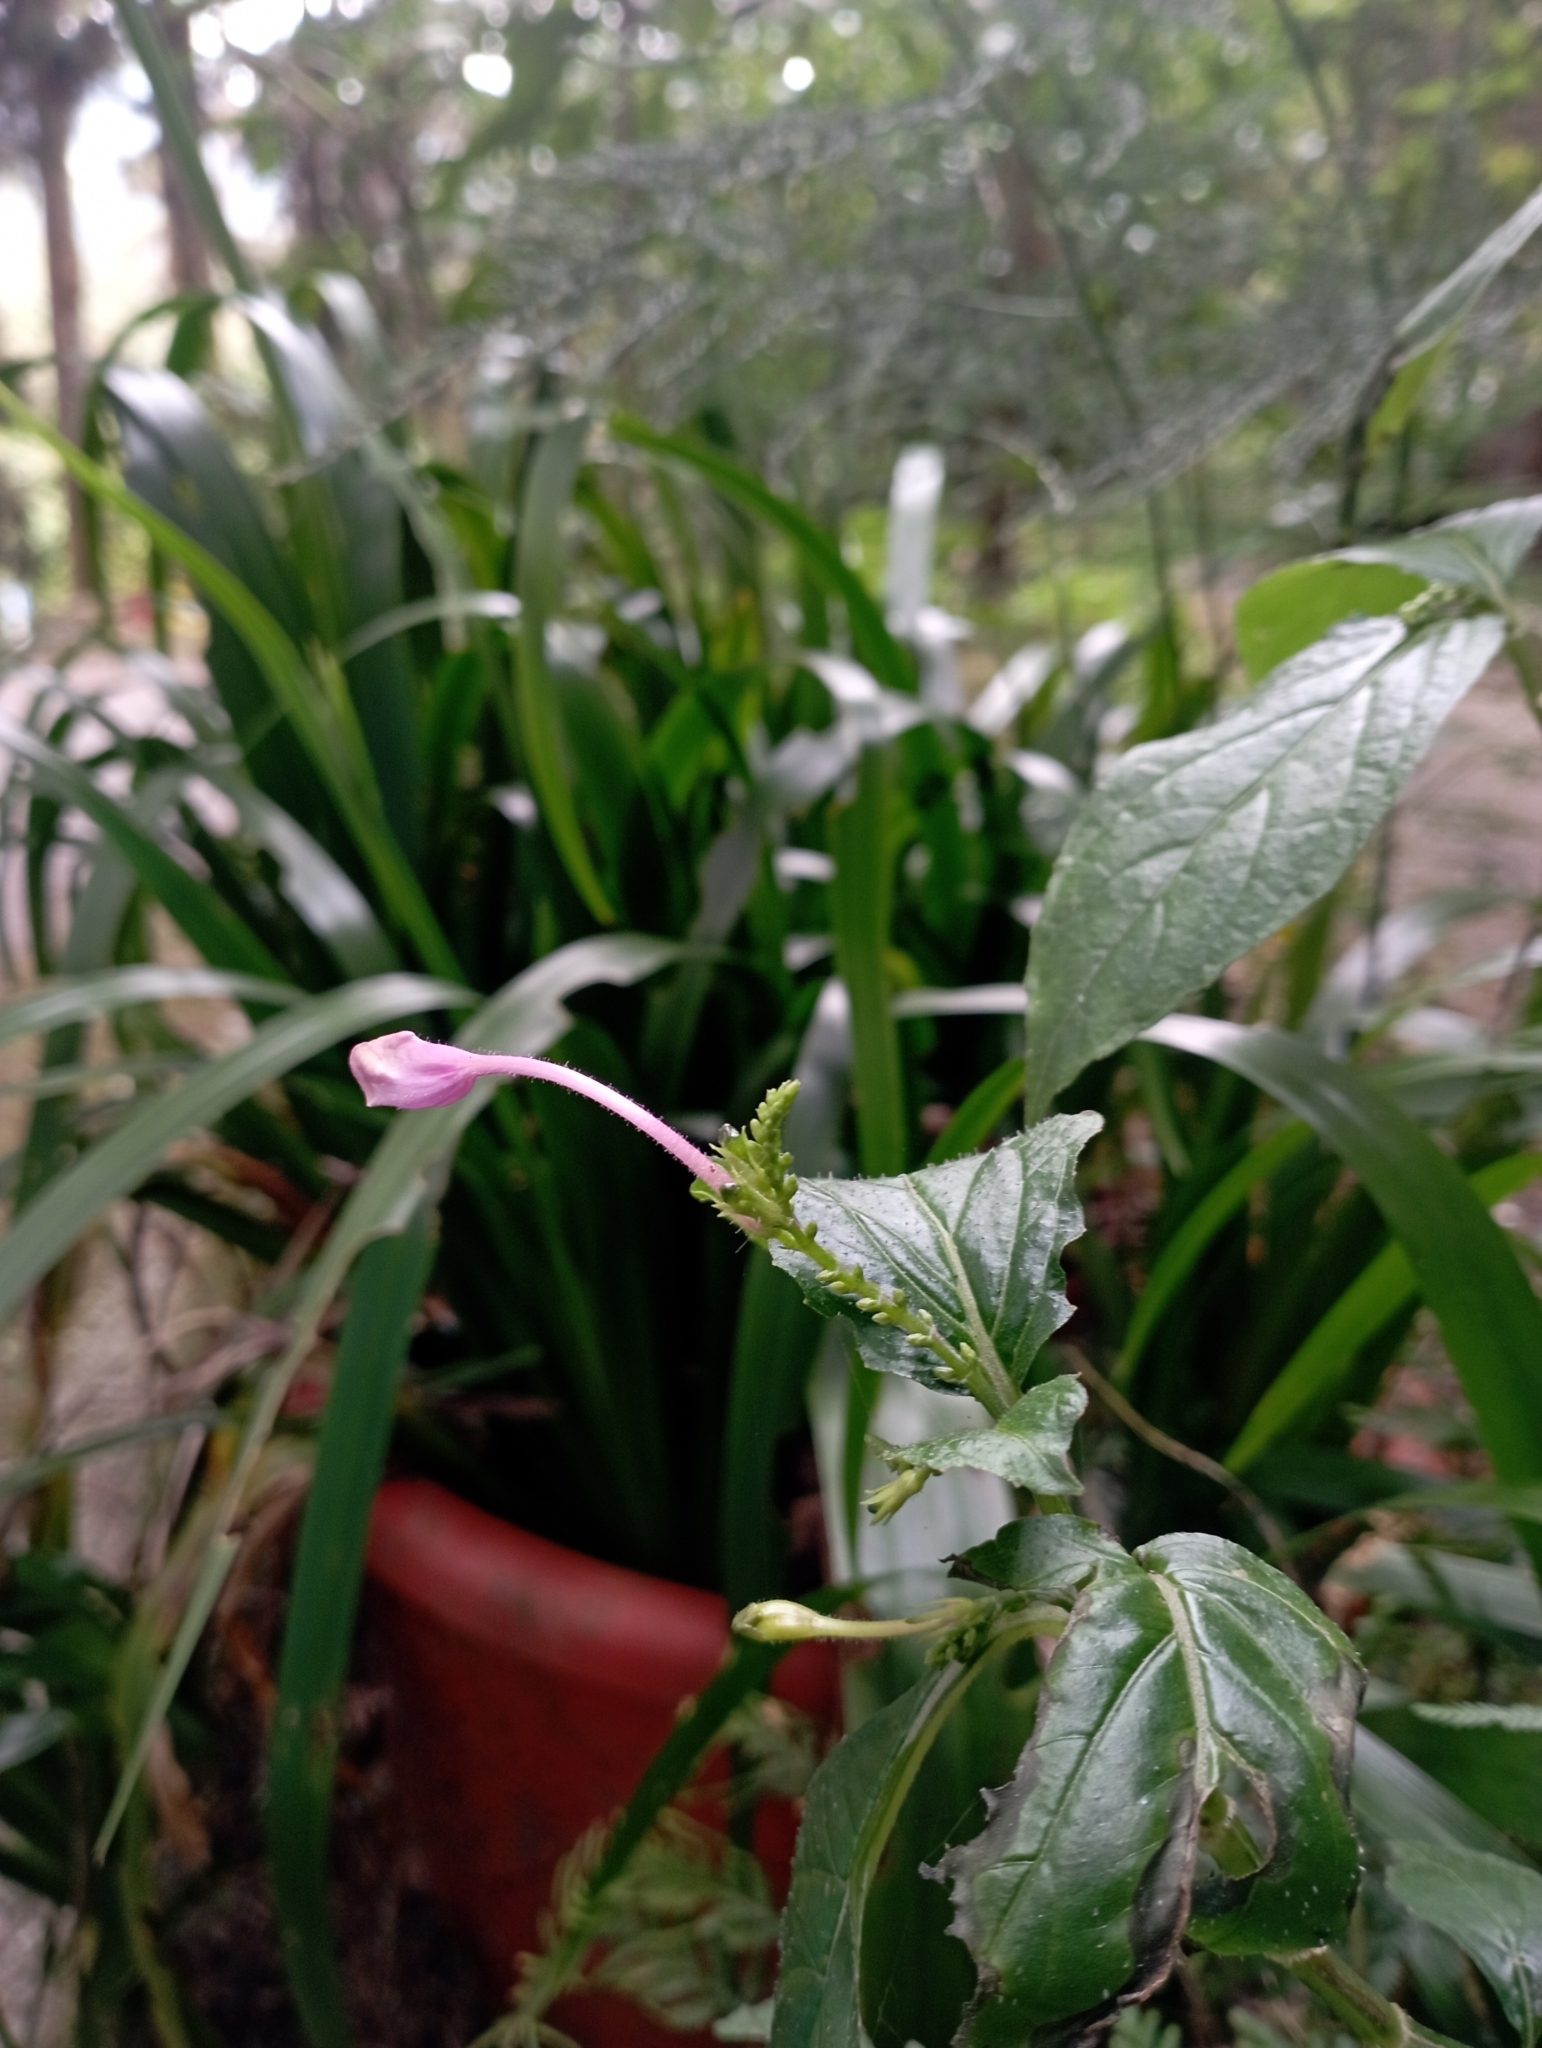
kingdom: Plantae
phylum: Tracheophyta
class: Magnoliopsida
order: Lamiales
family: Acanthaceae
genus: Mackaya
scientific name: Mackaya neesiana
